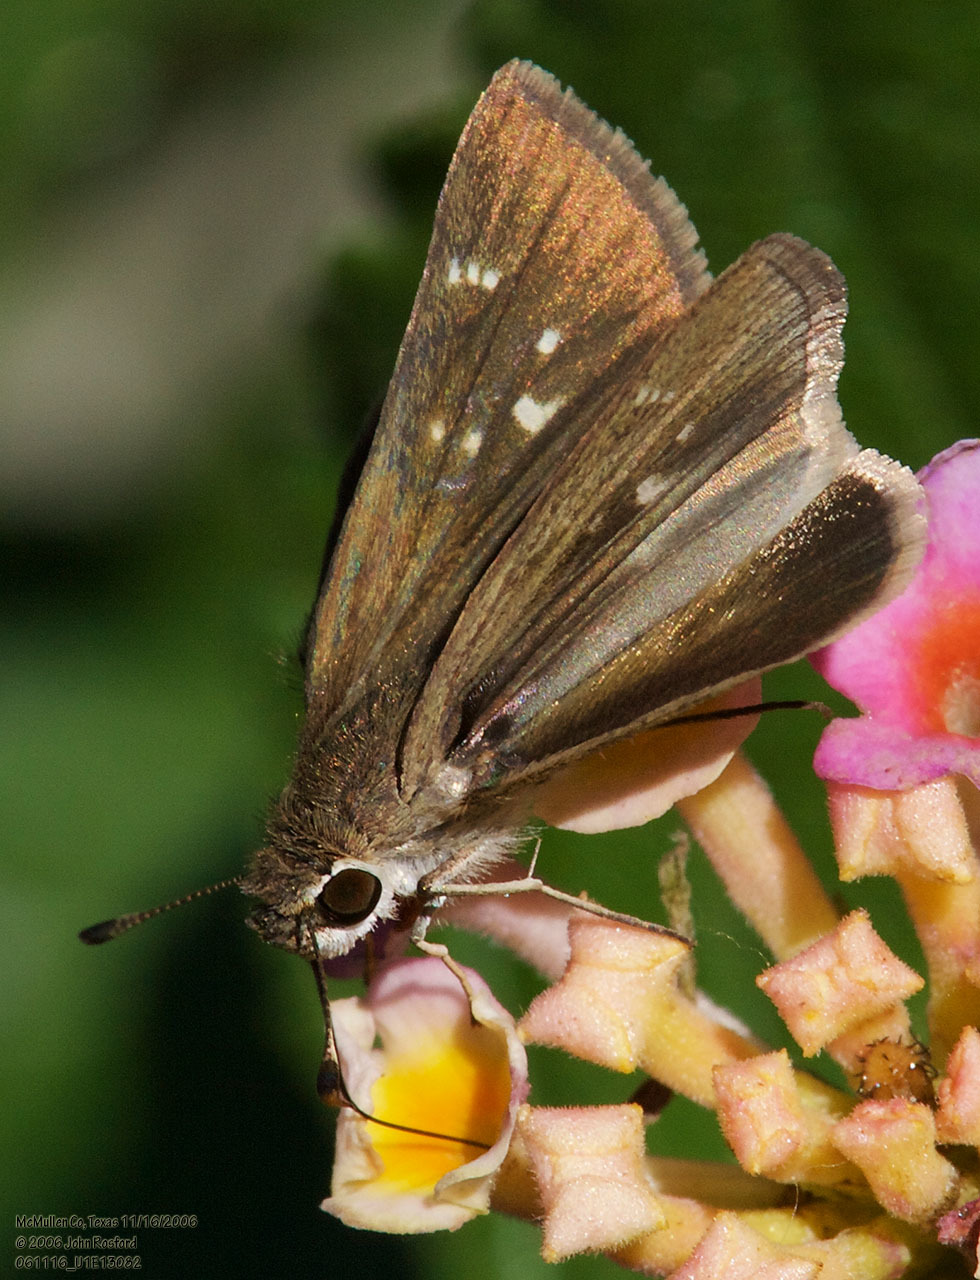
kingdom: Animalia
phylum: Arthropoda
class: Insecta
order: Lepidoptera
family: Hesperiidae
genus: Lerodea
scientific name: Lerodea eufala
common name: Eufala skipper
